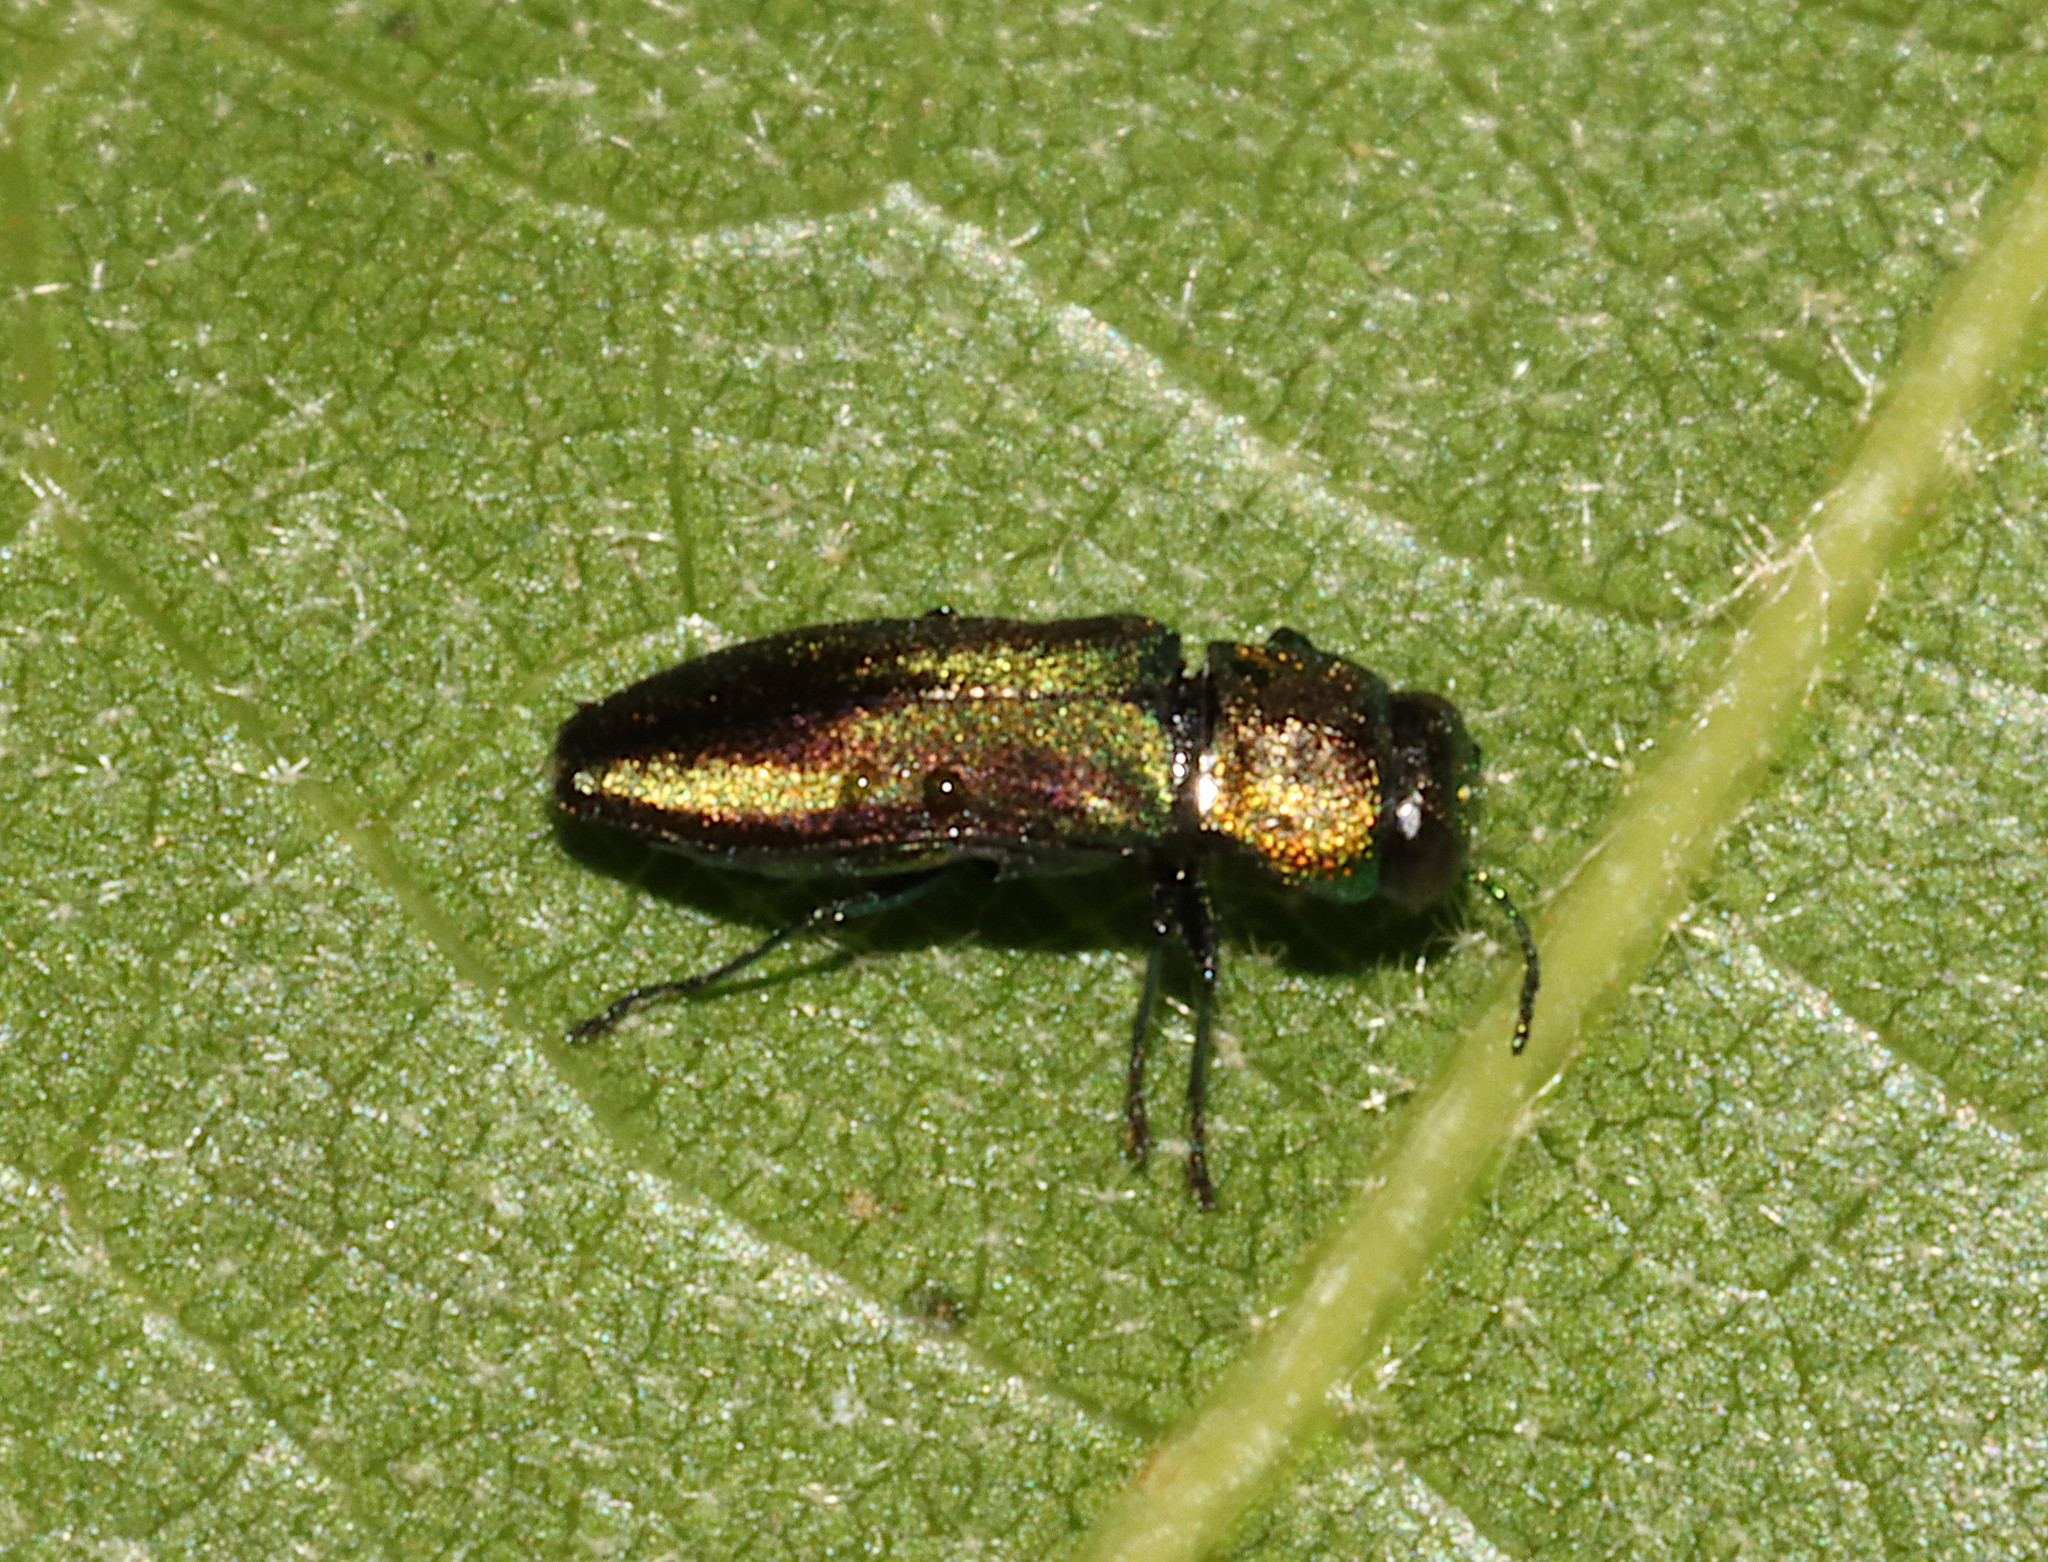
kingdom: Animalia
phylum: Arthropoda
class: Insecta
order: Coleoptera
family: Buprestidae
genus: Anthaxia
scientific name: Anthaxia quercata
